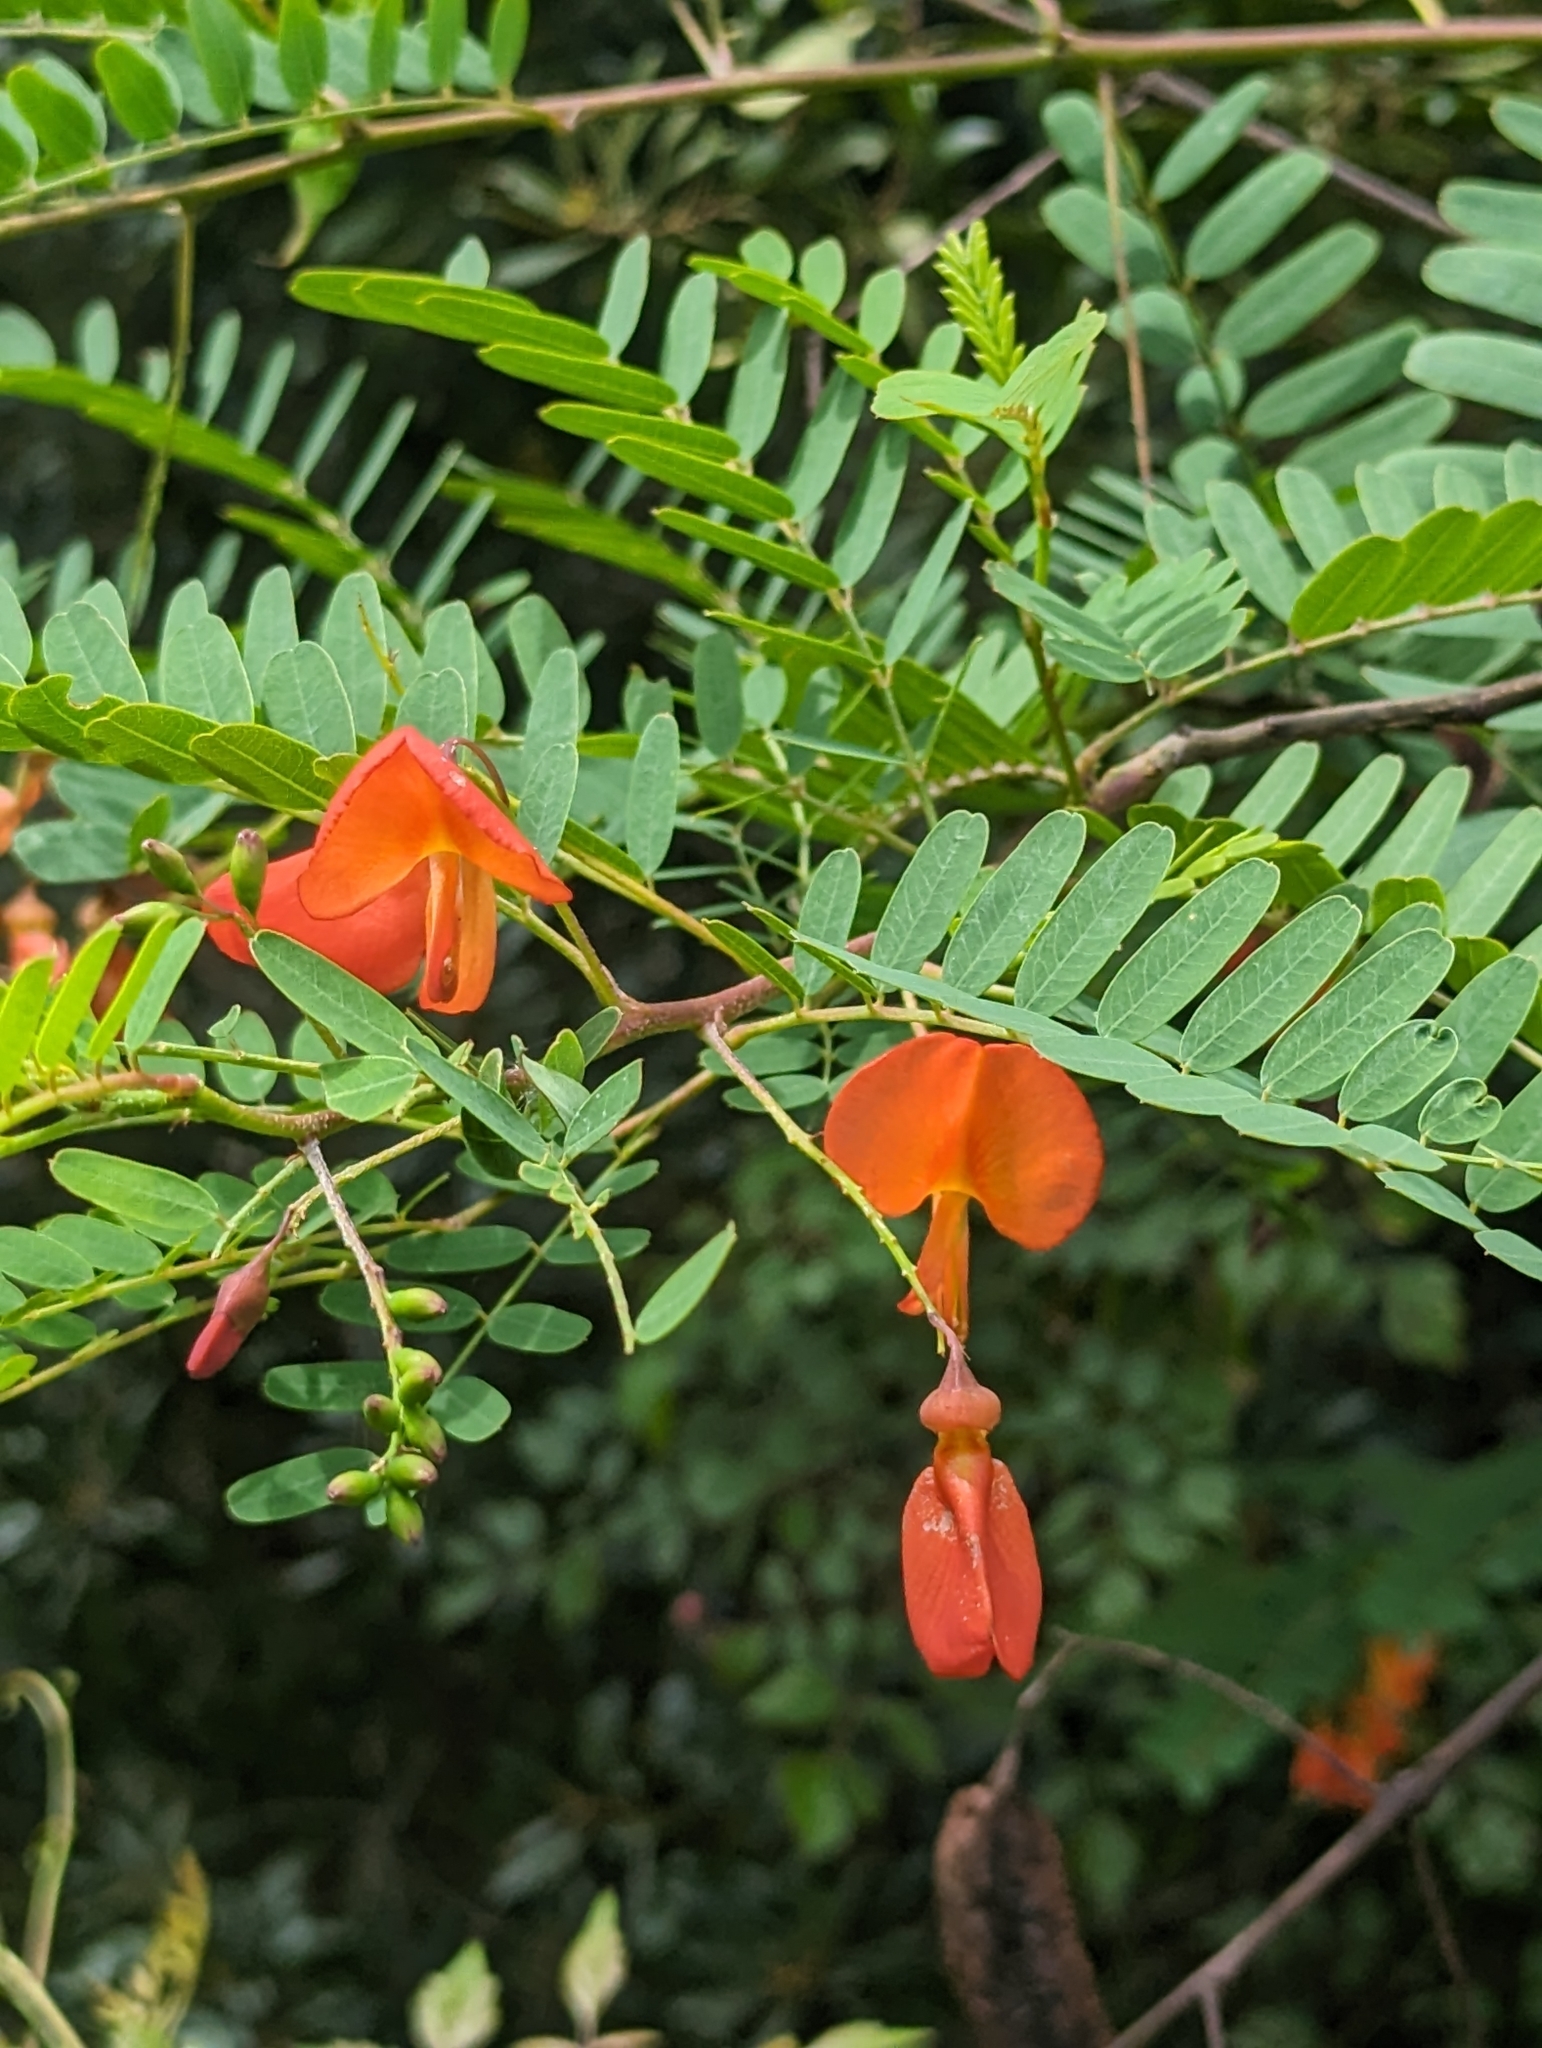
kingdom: Plantae
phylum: Tracheophyta
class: Magnoliopsida
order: Fabales
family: Fabaceae
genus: Sesbania
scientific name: Sesbania punicea
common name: Rattlebox
